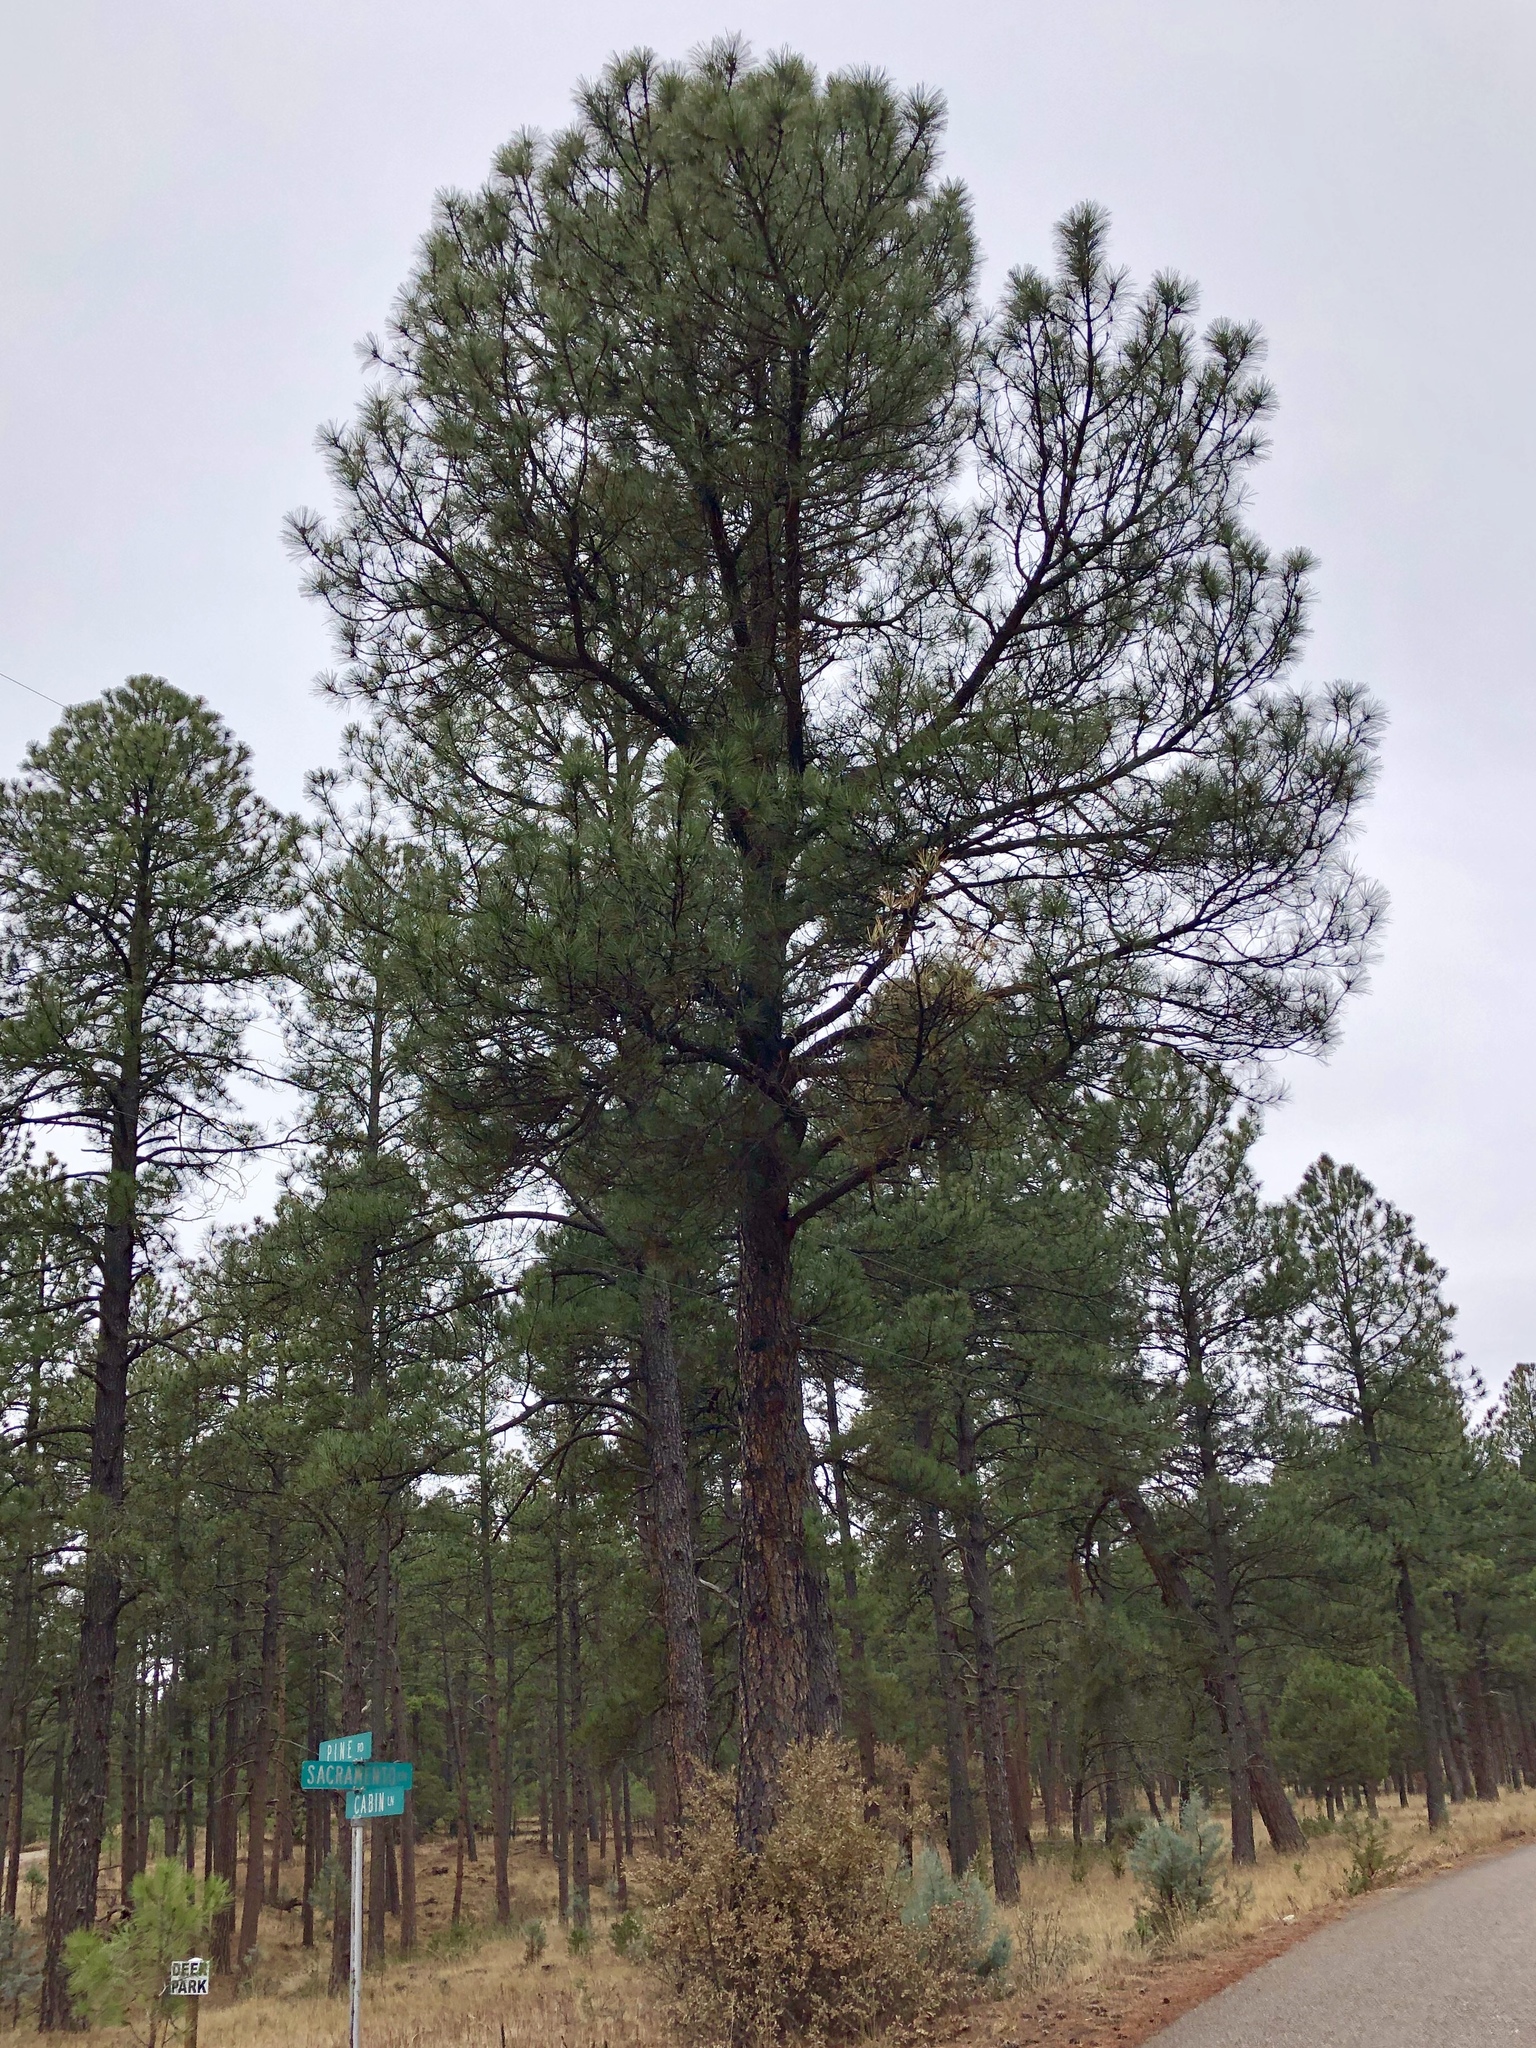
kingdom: Plantae
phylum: Tracheophyta
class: Pinopsida
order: Pinales
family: Pinaceae
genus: Pinus
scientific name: Pinus ponderosa
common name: Western yellow-pine
